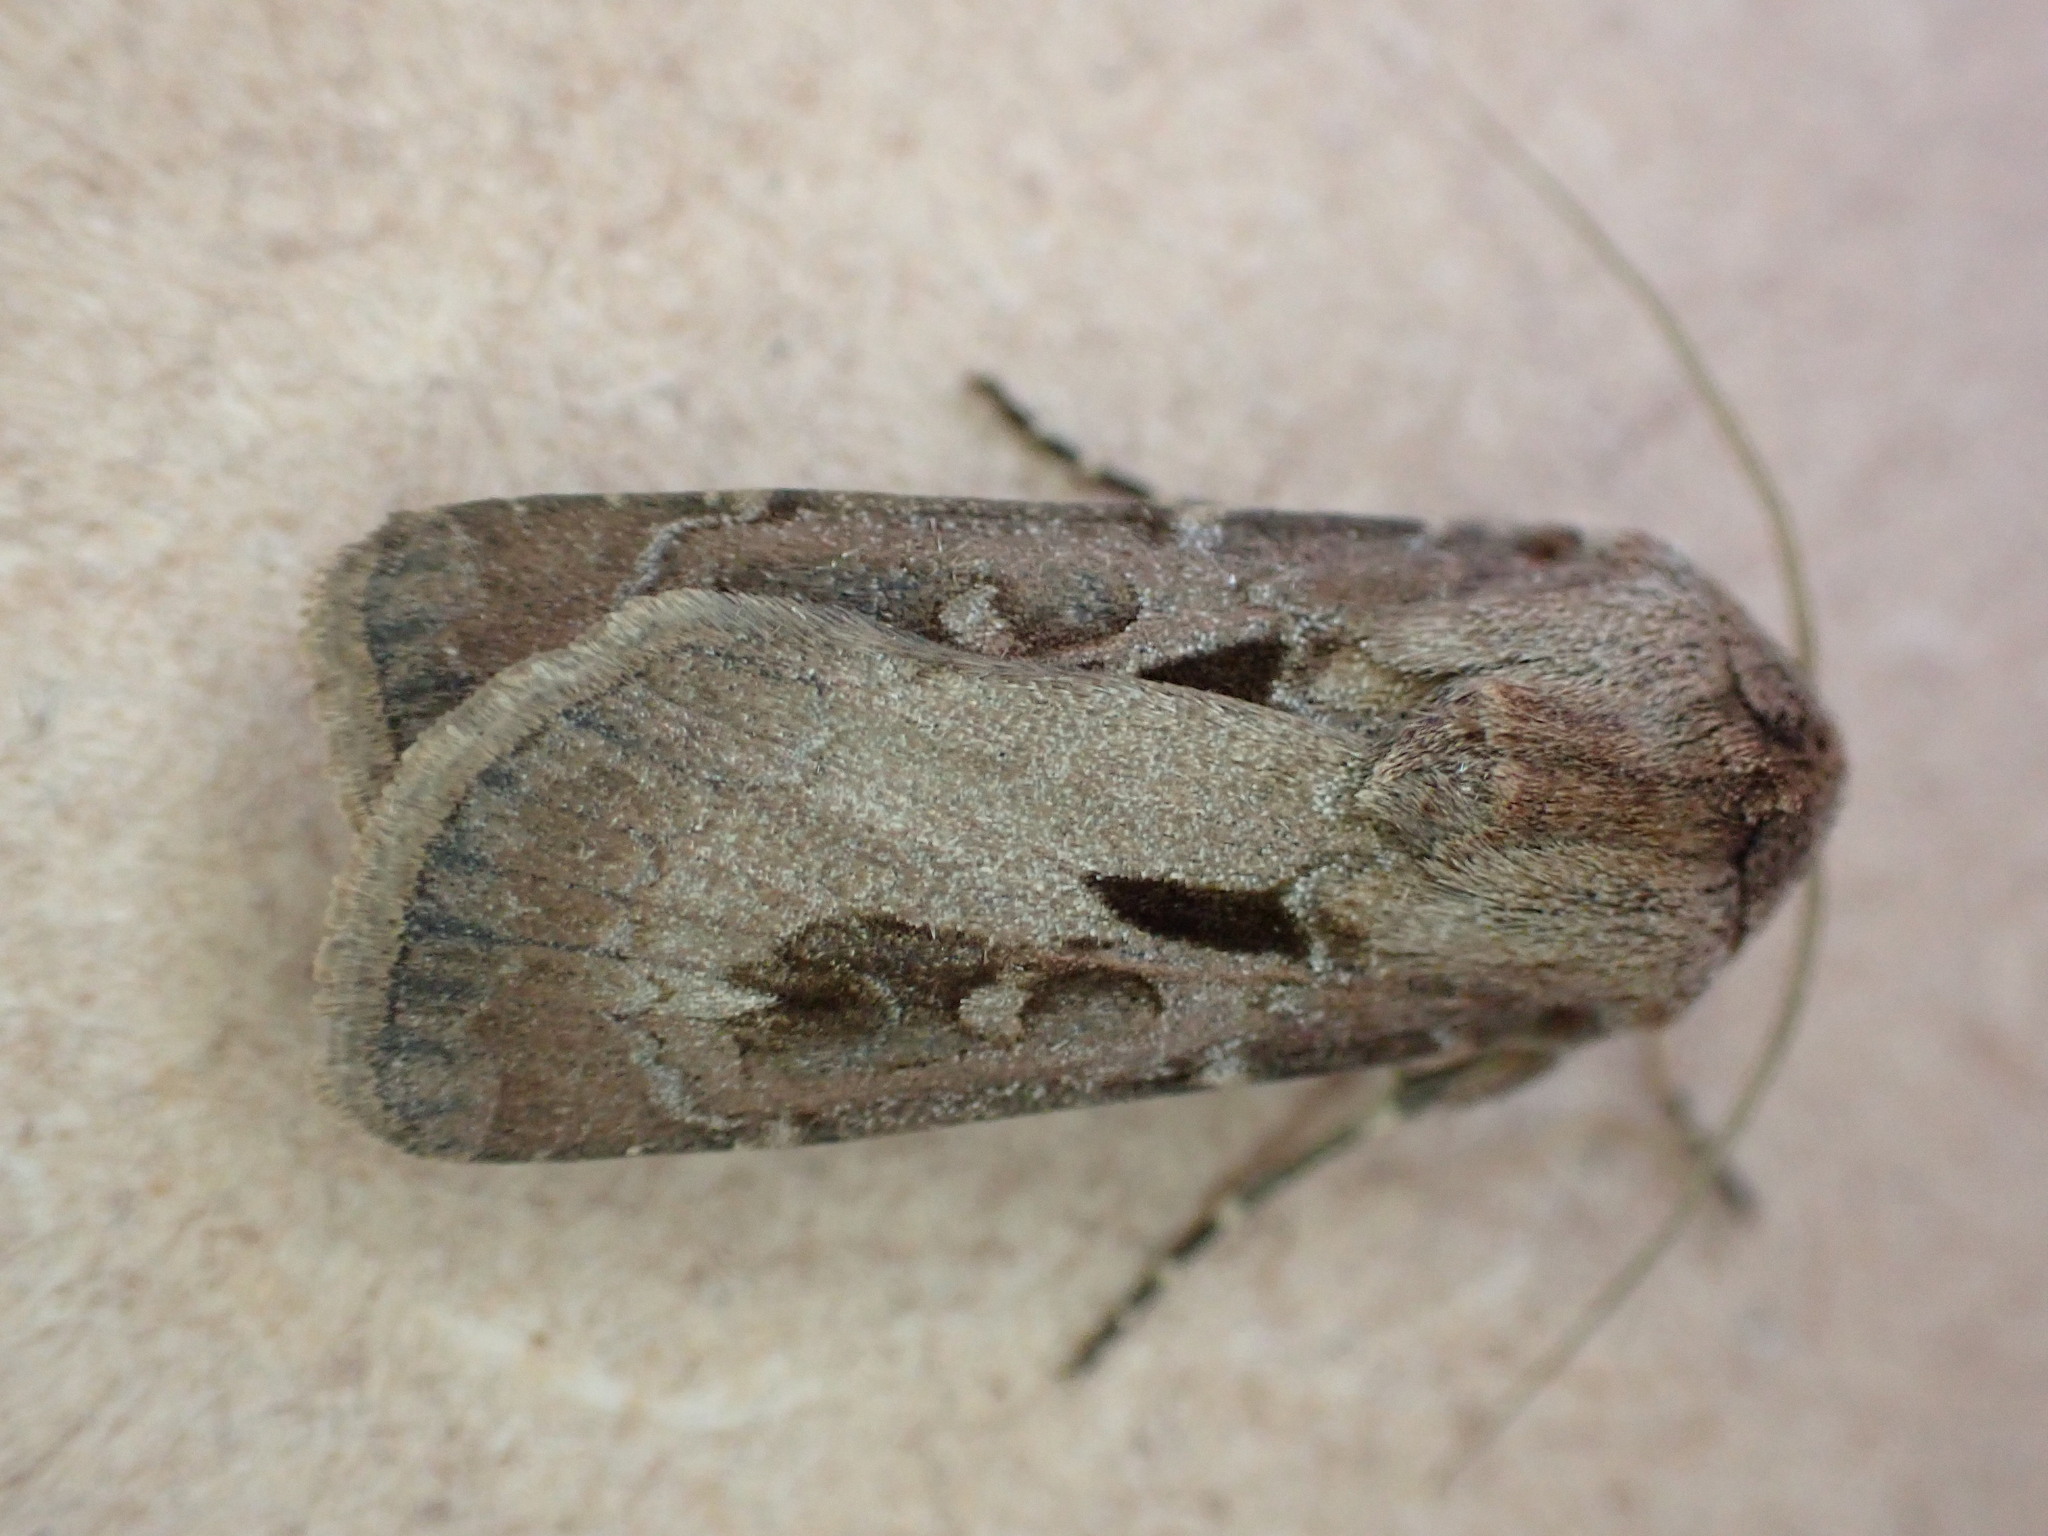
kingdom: Animalia
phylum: Arthropoda
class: Insecta
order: Lepidoptera
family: Noctuidae
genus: Agrotis
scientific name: Agrotis exclamationis
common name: Heart and dart
